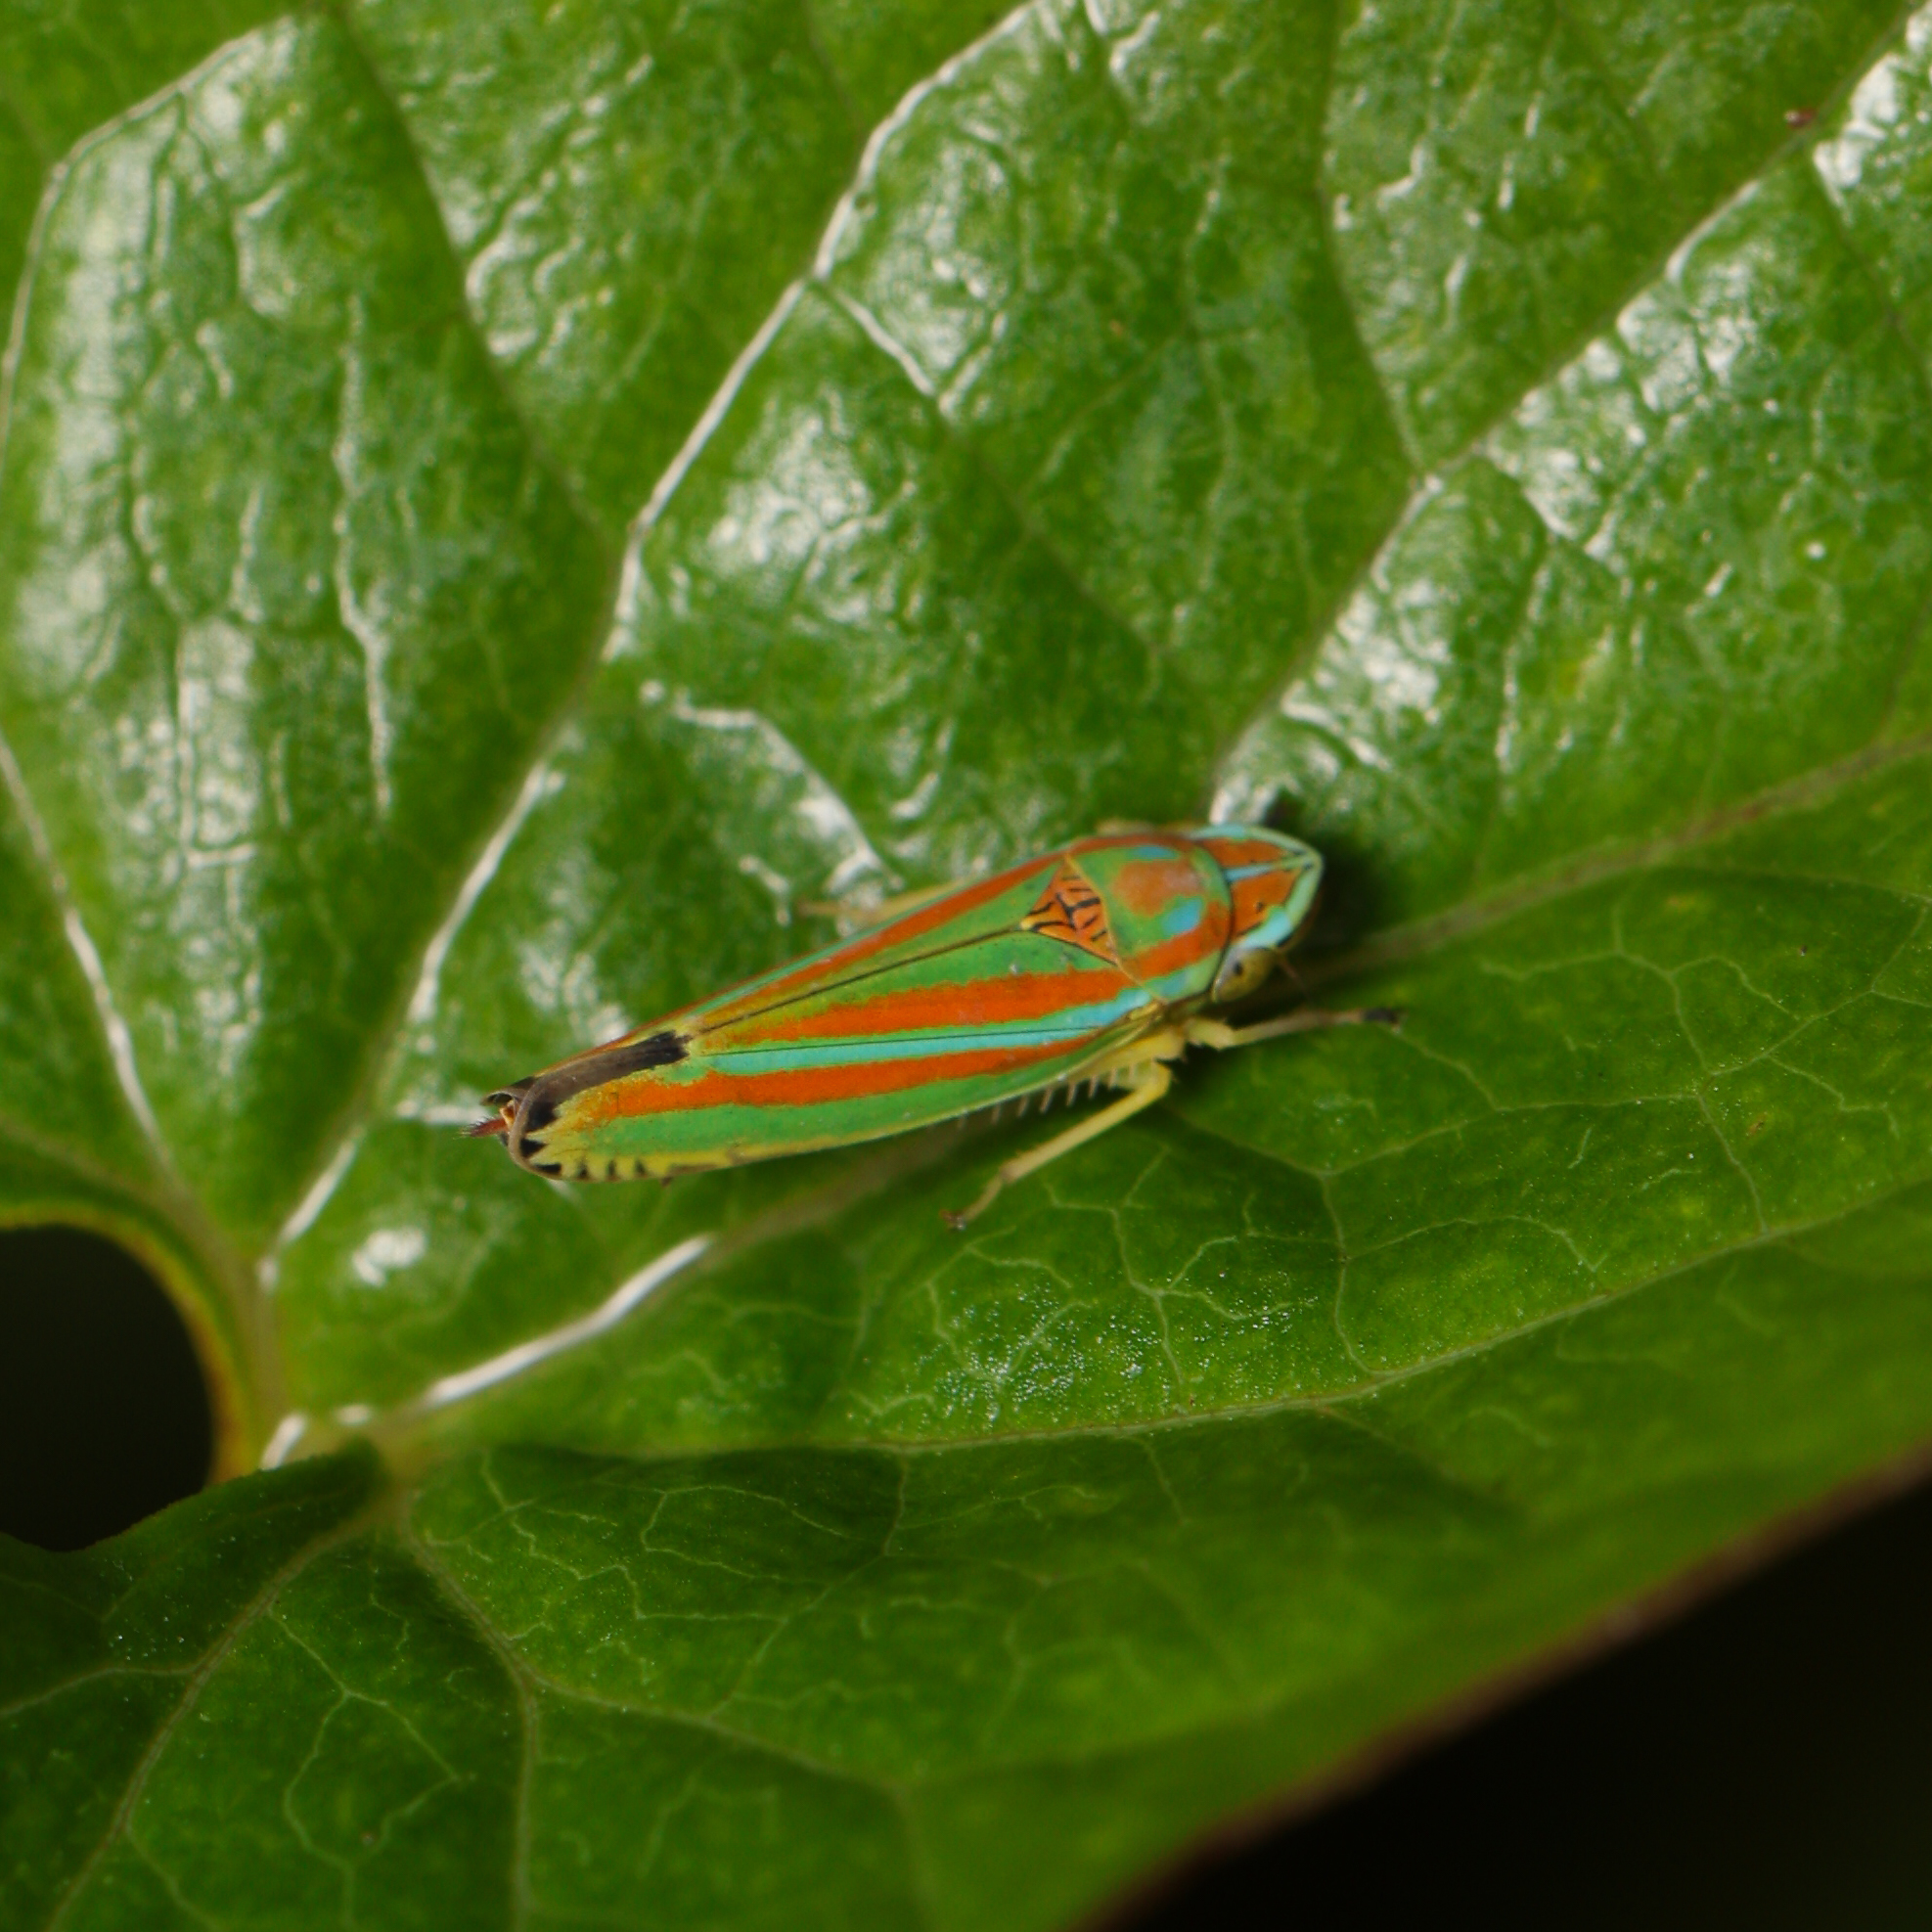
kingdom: Animalia
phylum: Arthropoda
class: Insecta
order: Hemiptera
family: Cicadellidae
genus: Graphocephala
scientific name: Graphocephala versuta
